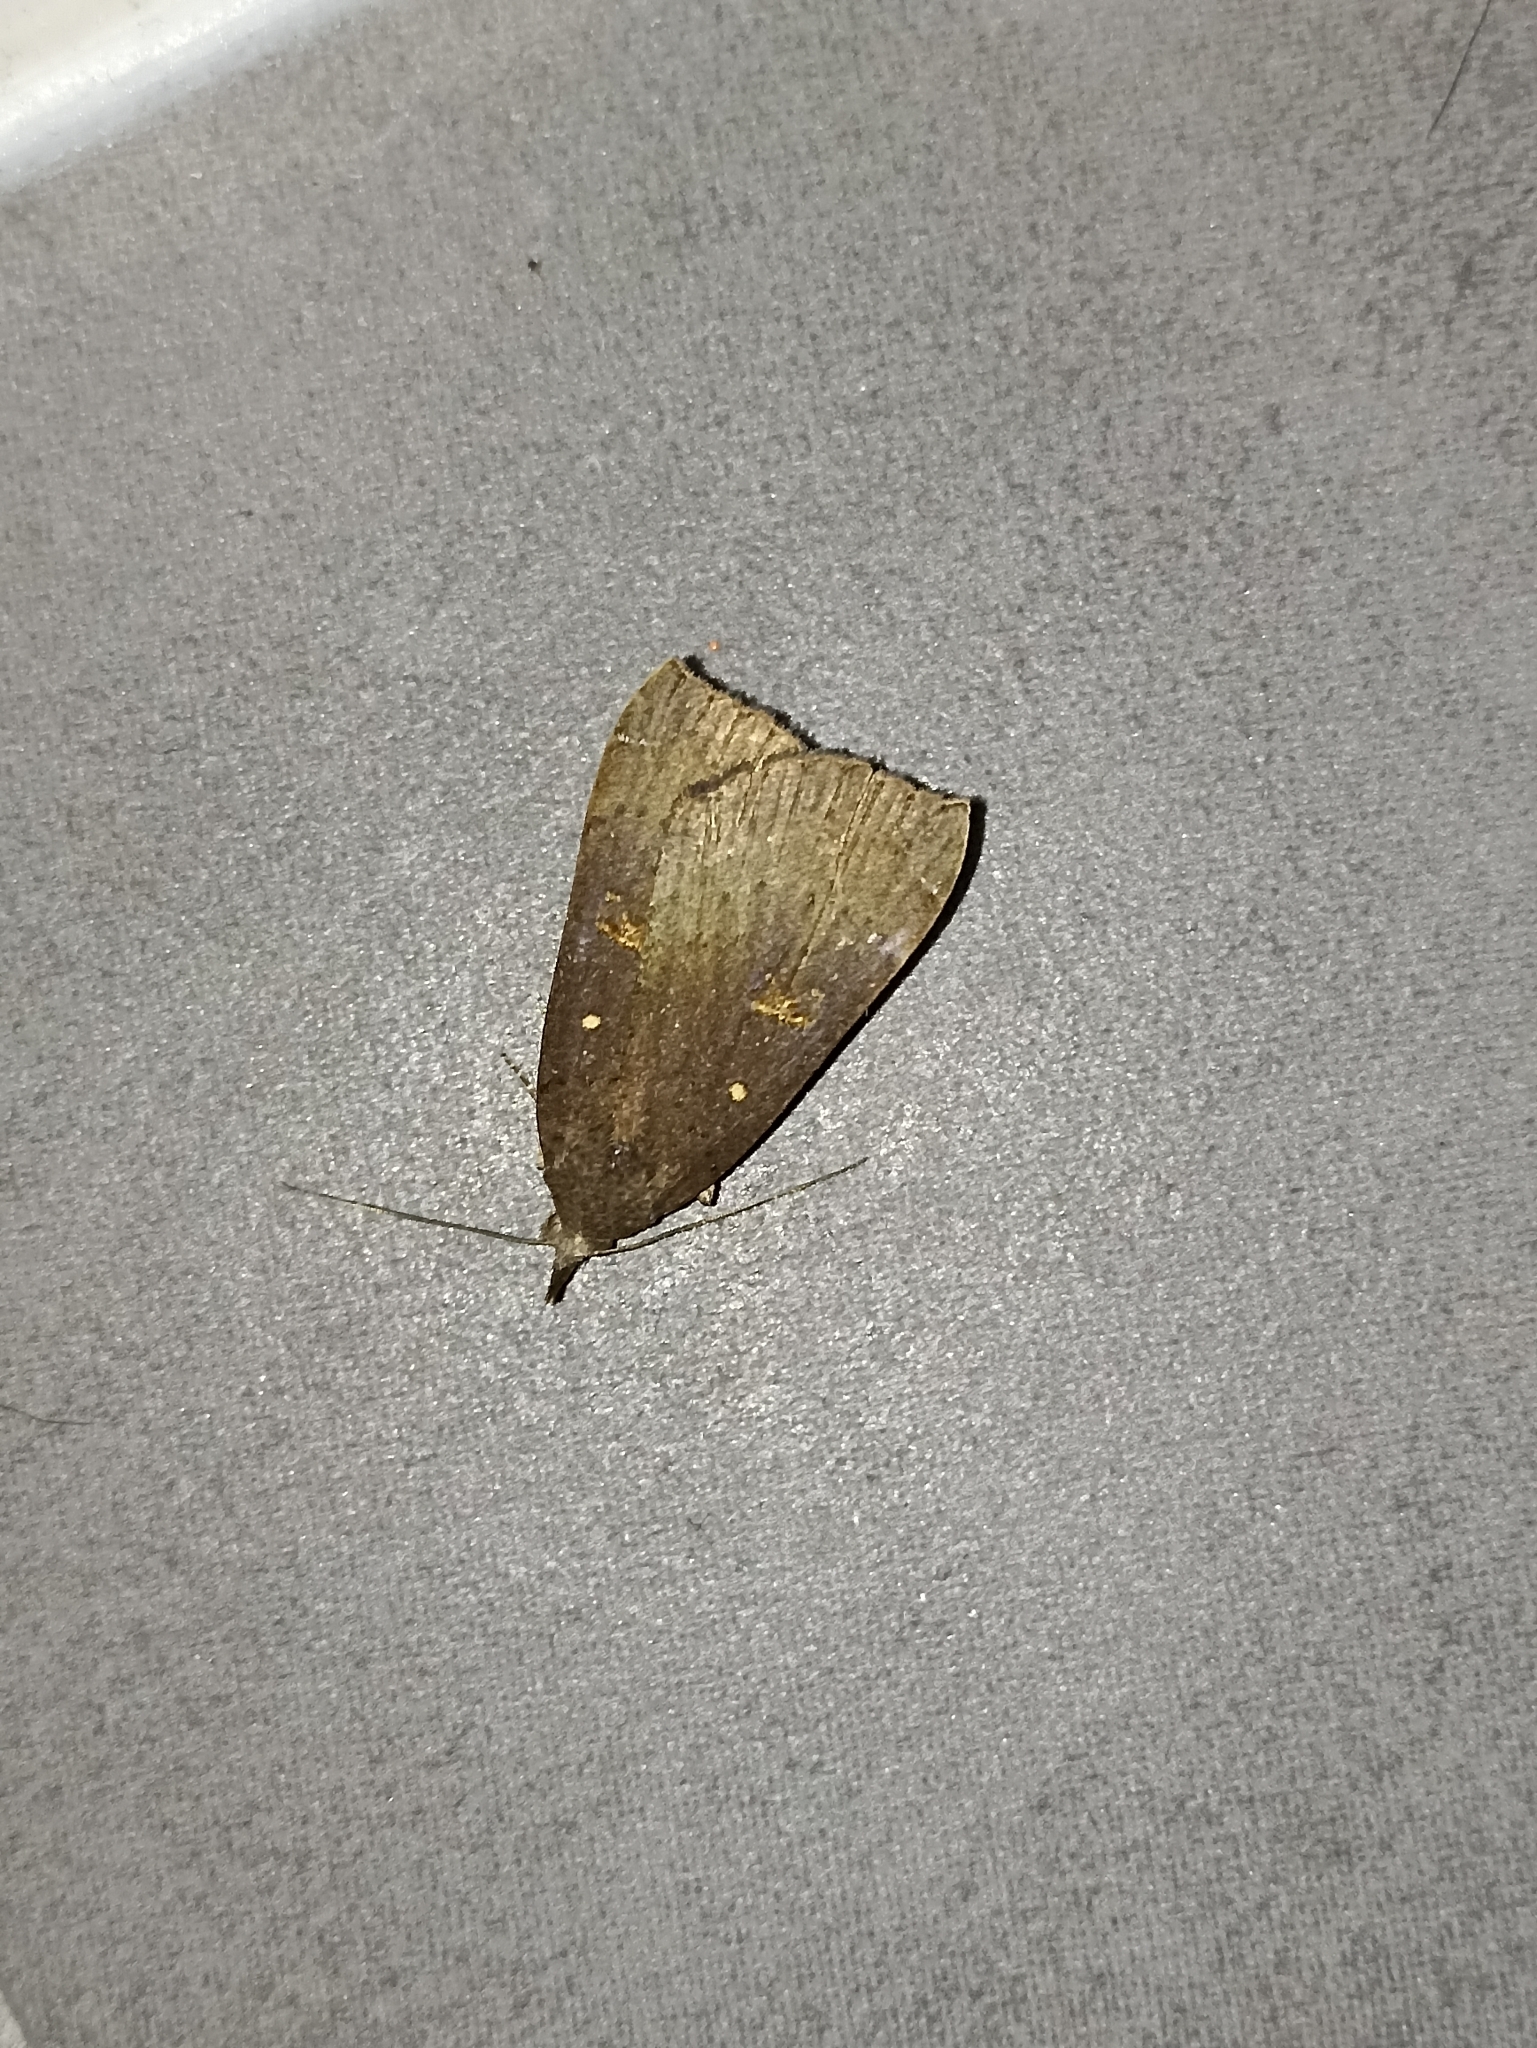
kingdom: Animalia
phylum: Arthropoda
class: Insecta
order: Lepidoptera
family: Erebidae
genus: Rhapsa
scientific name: Rhapsa scotosialis
